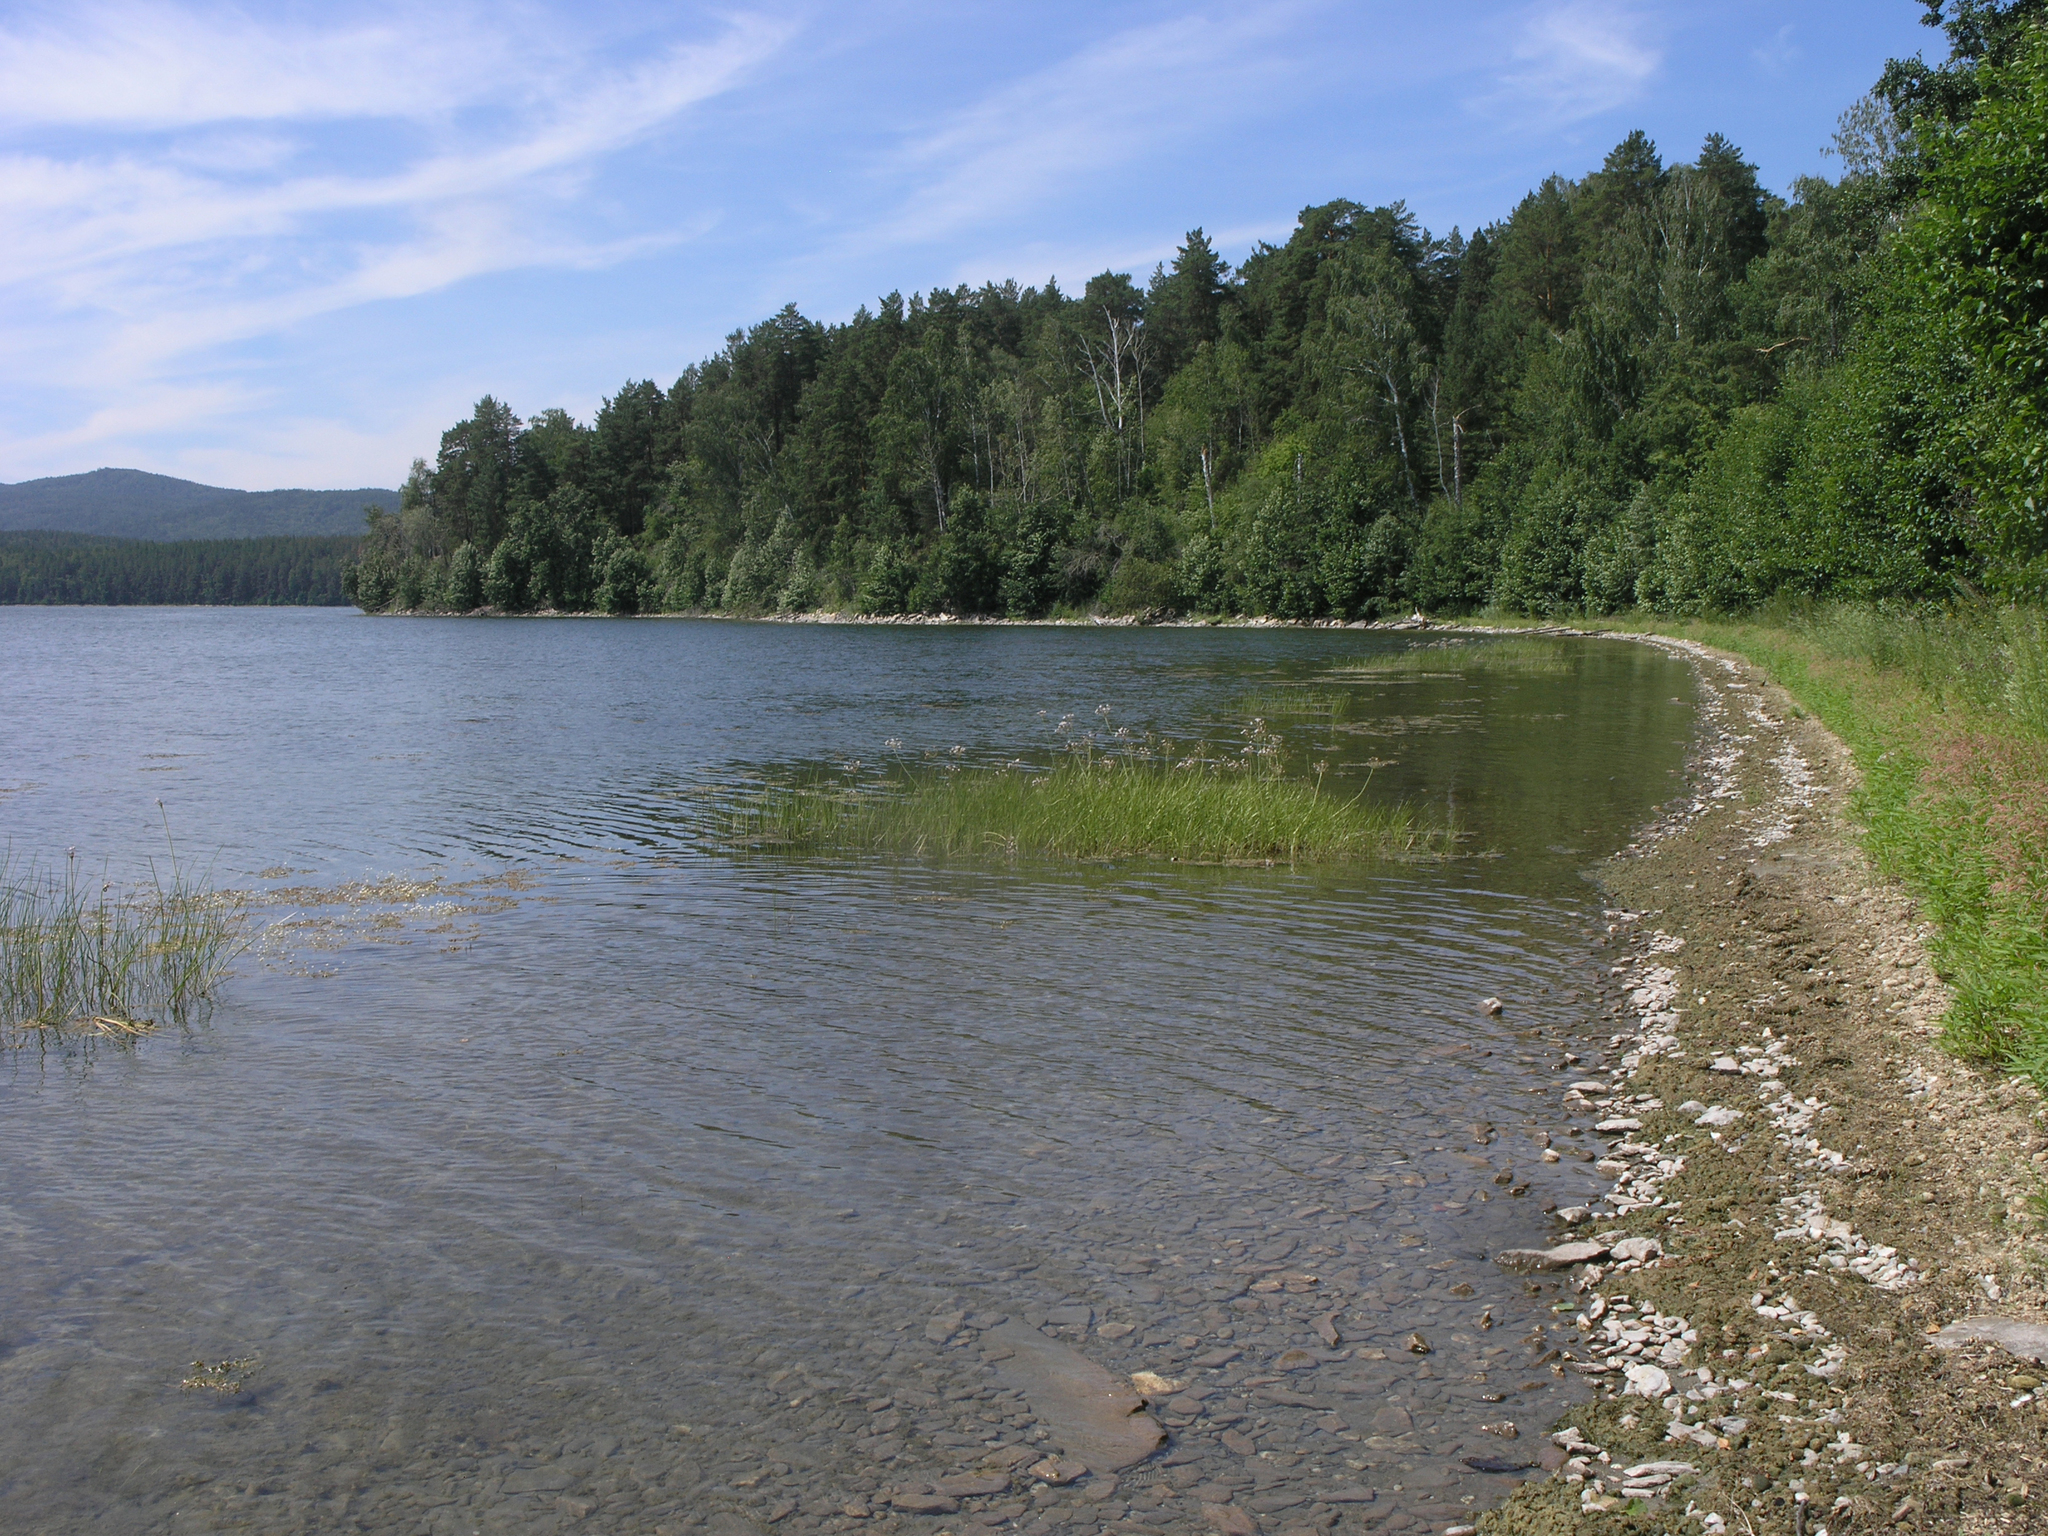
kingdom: Plantae
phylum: Tracheophyta
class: Pinopsida
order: Pinales
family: Pinaceae
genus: Pinus
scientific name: Pinus sylvestris
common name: Scots pine
